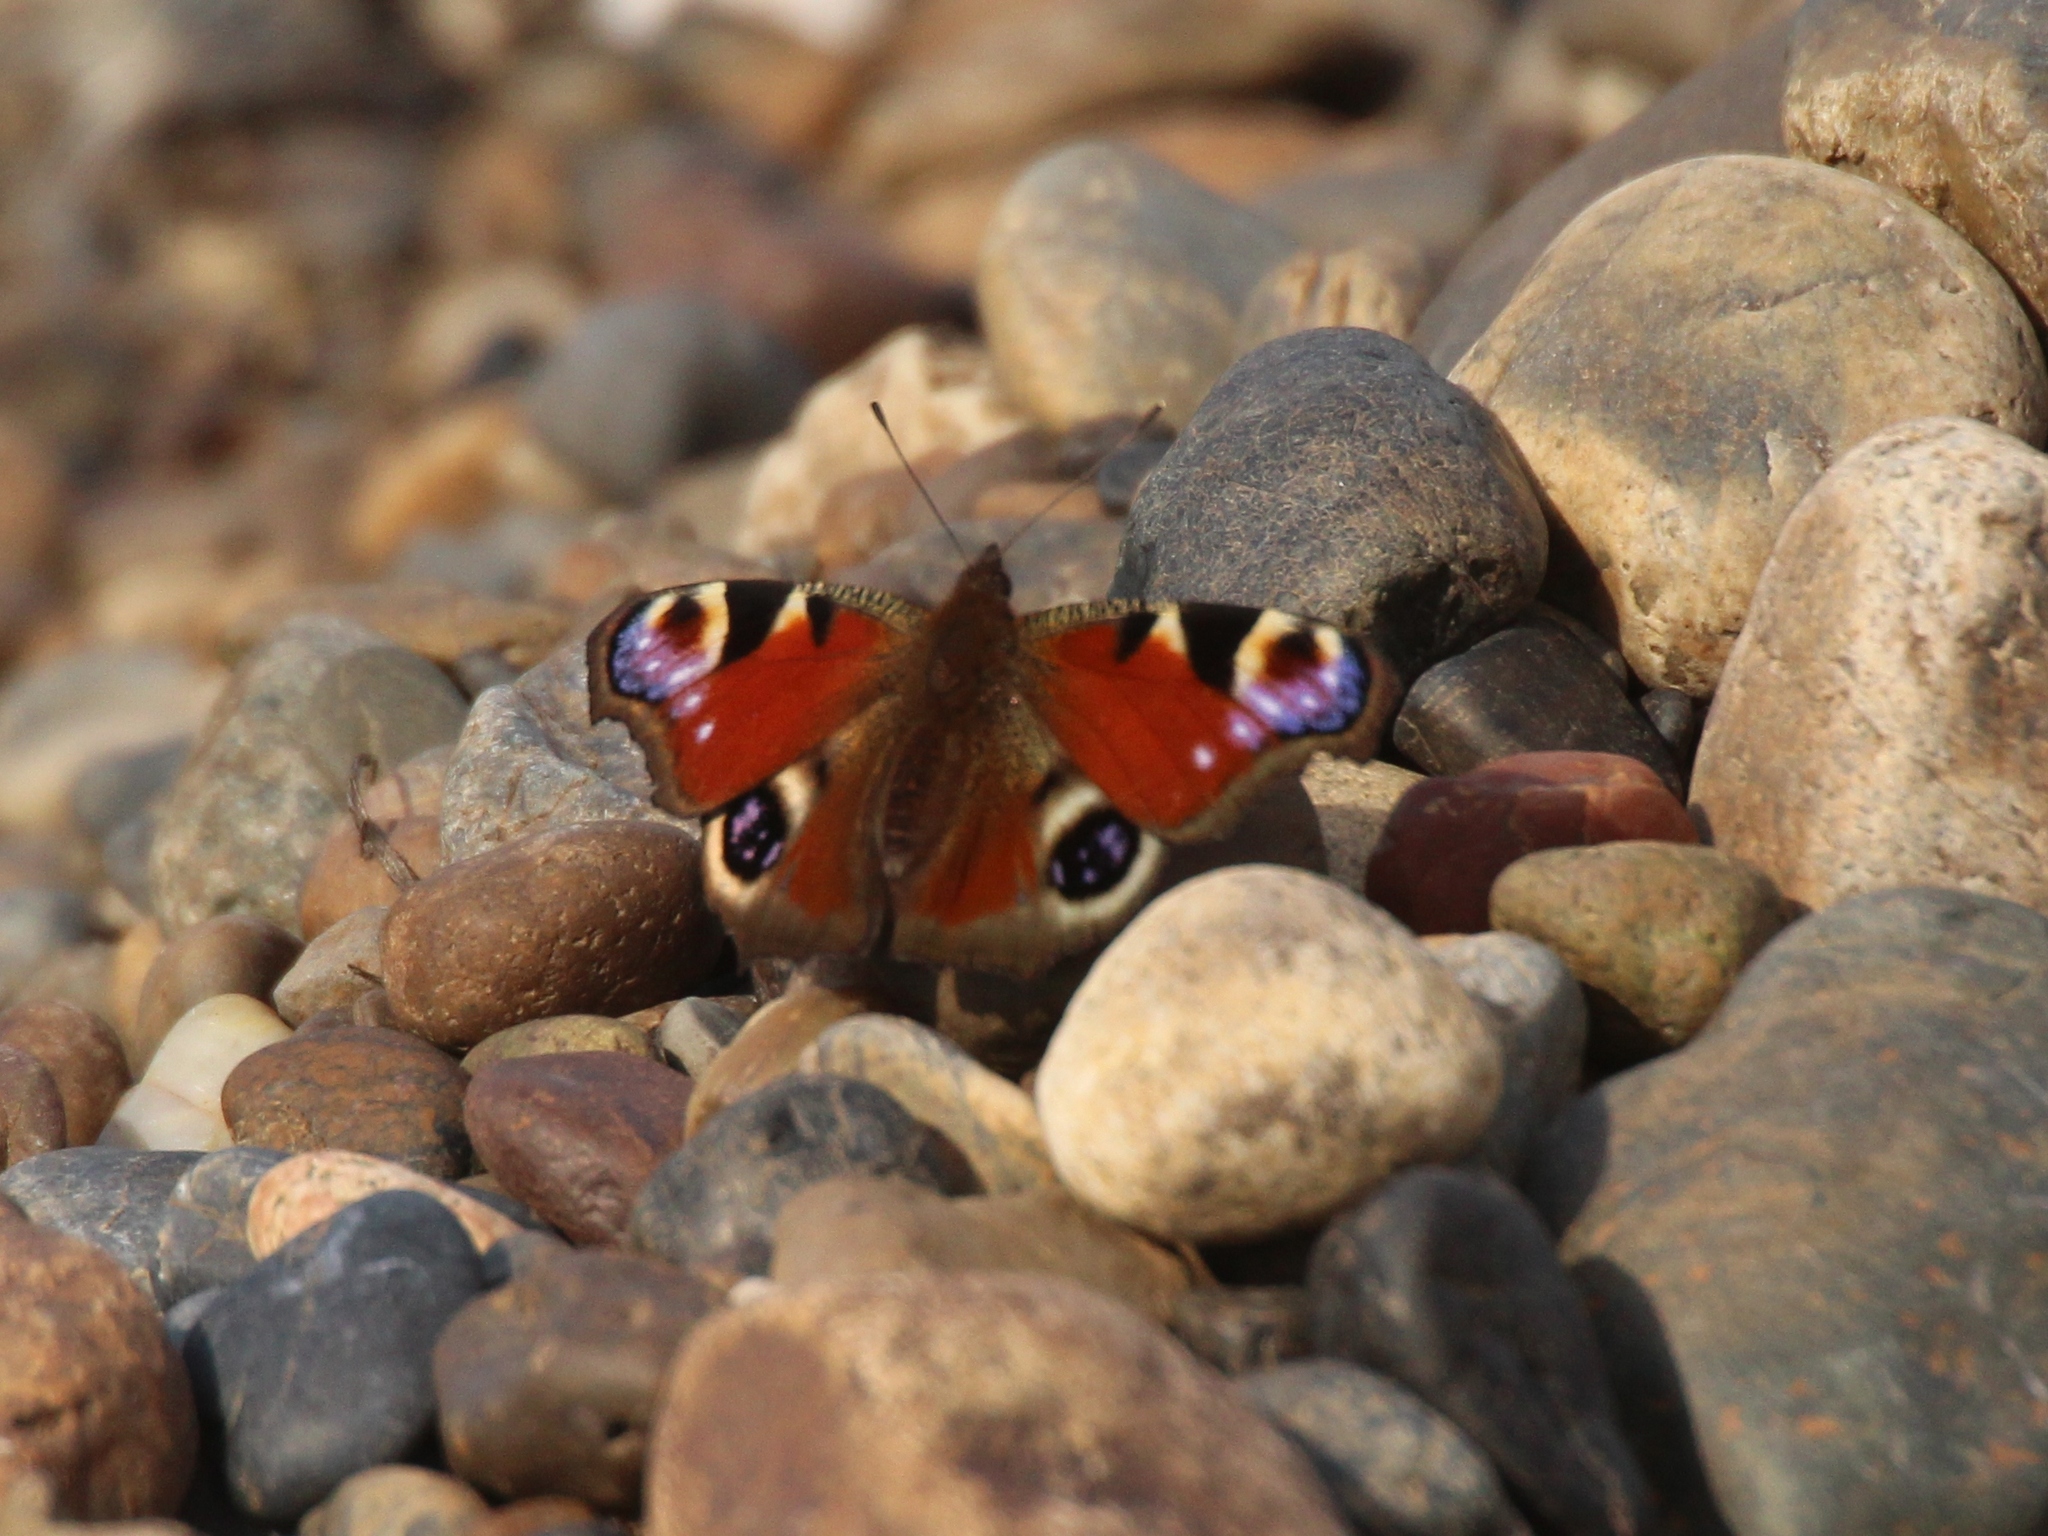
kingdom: Animalia
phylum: Arthropoda
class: Insecta
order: Lepidoptera
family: Nymphalidae
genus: Aglais
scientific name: Aglais io
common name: Peacock
